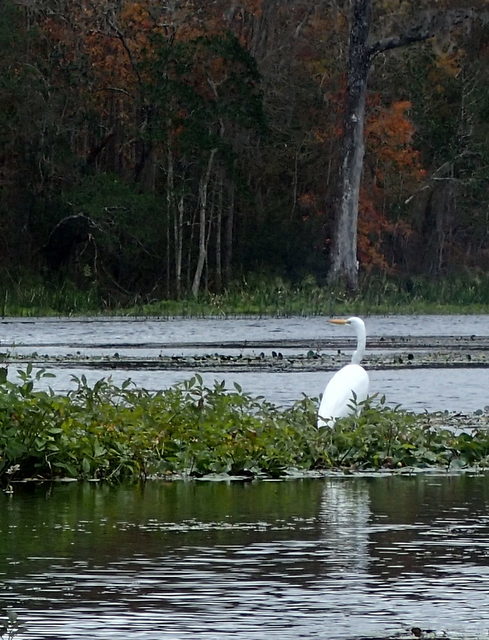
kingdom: Animalia
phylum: Chordata
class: Aves
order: Pelecaniformes
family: Ardeidae
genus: Ardea
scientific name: Ardea alba
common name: Great egret
